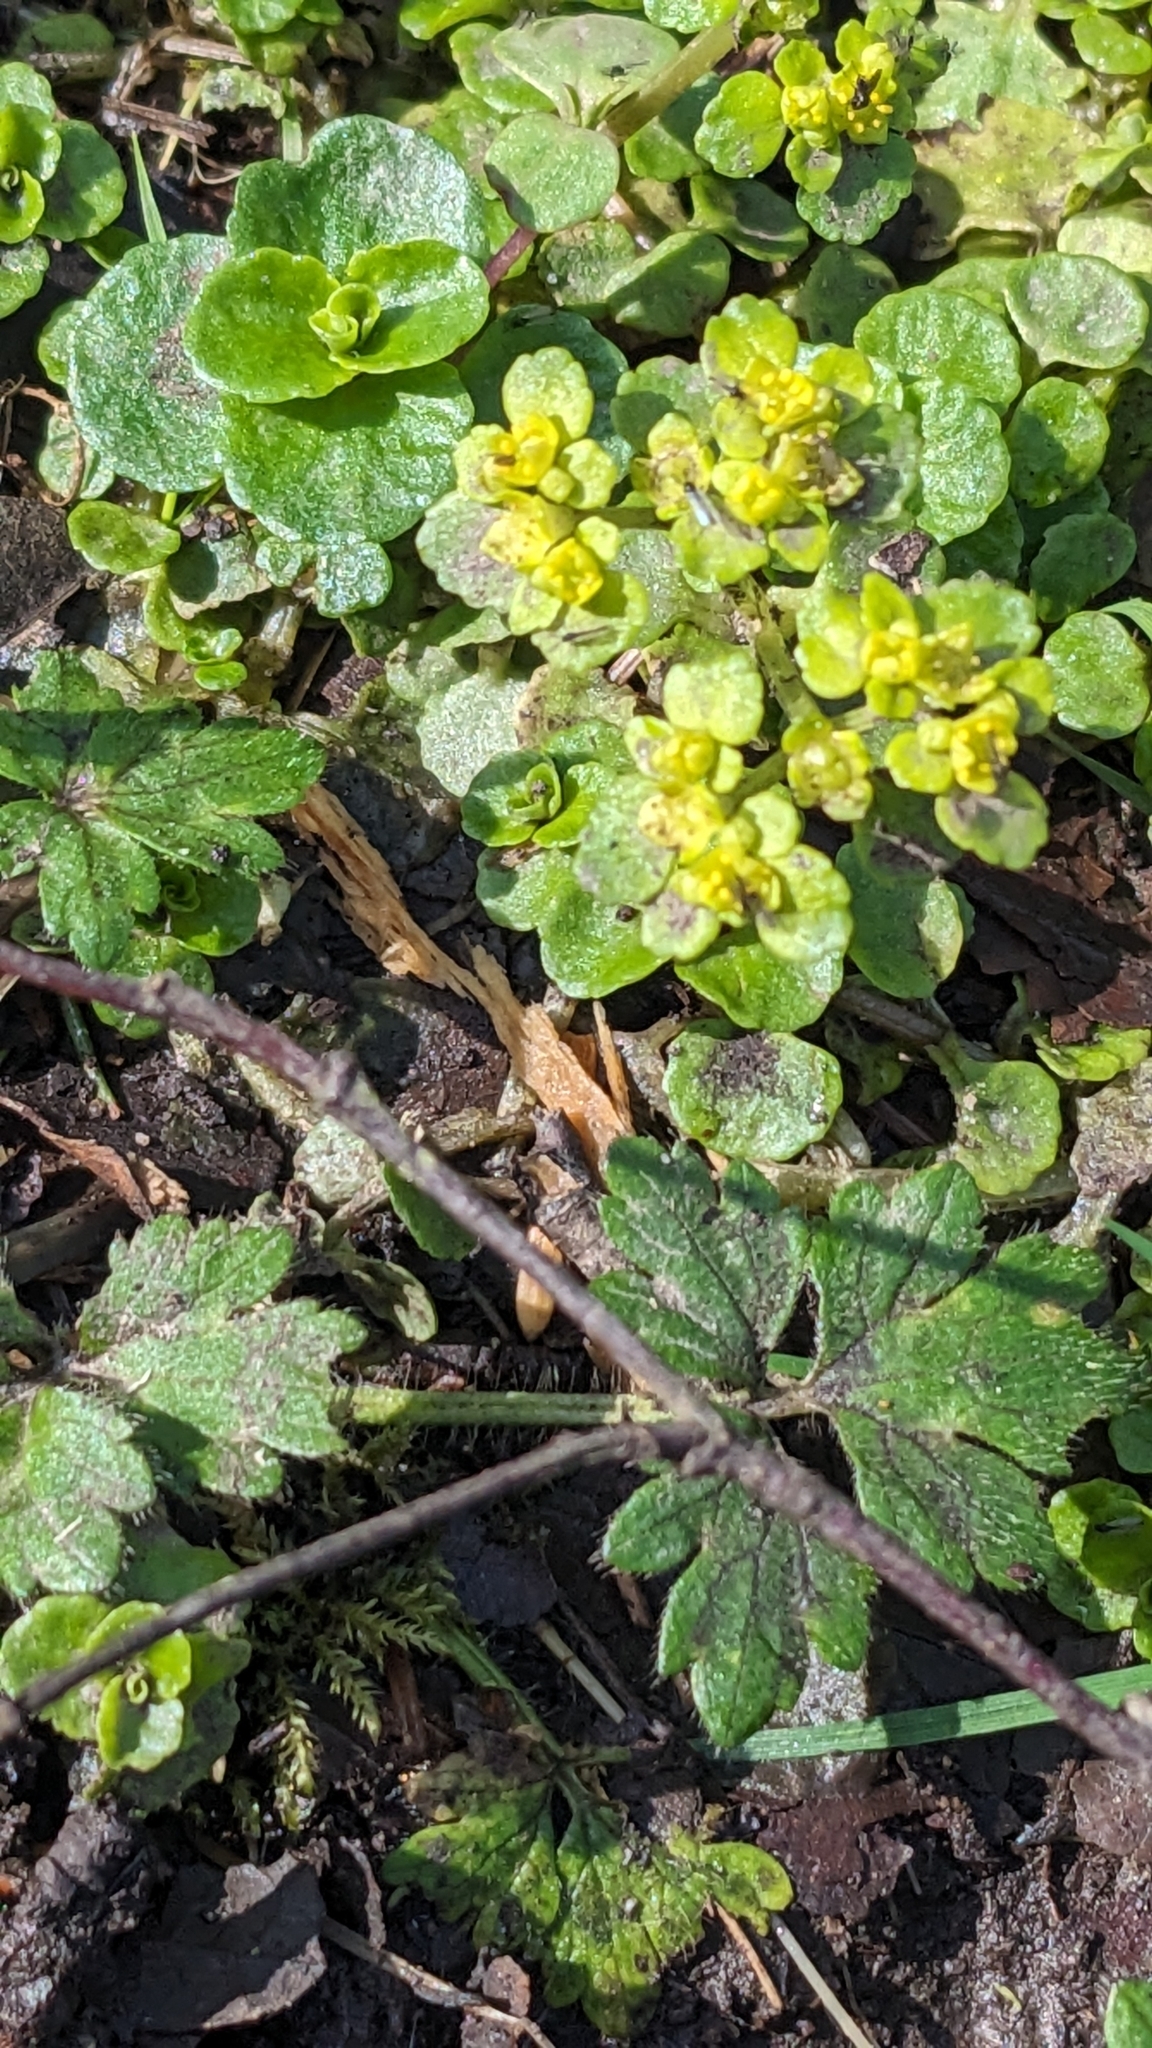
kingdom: Plantae
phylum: Tracheophyta
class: Magnoliopsida
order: Saxifragales
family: Saxifragaceae
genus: Chrysosplenium
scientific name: Chrysosplenium oppositifolium
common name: Opposite-leaved golden-saxifrage
